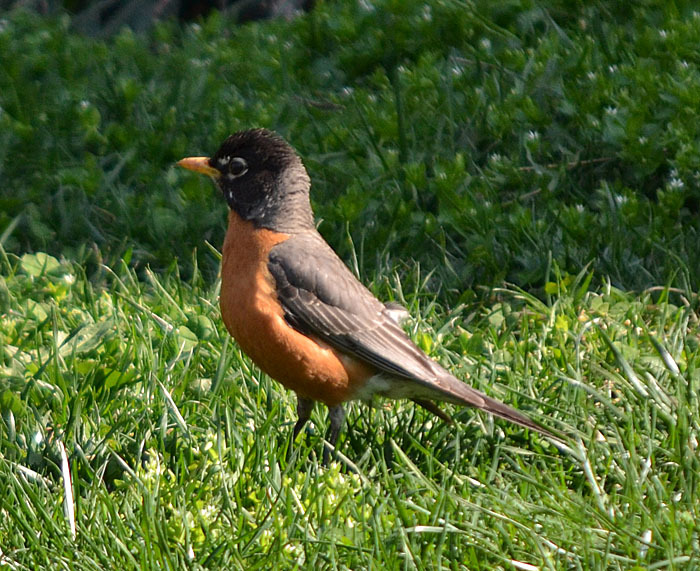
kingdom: Animalia
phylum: Chordata
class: Aves
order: Passeriformes
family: Turdidae
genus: Turdus
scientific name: Turdus migratorius
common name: American robin
